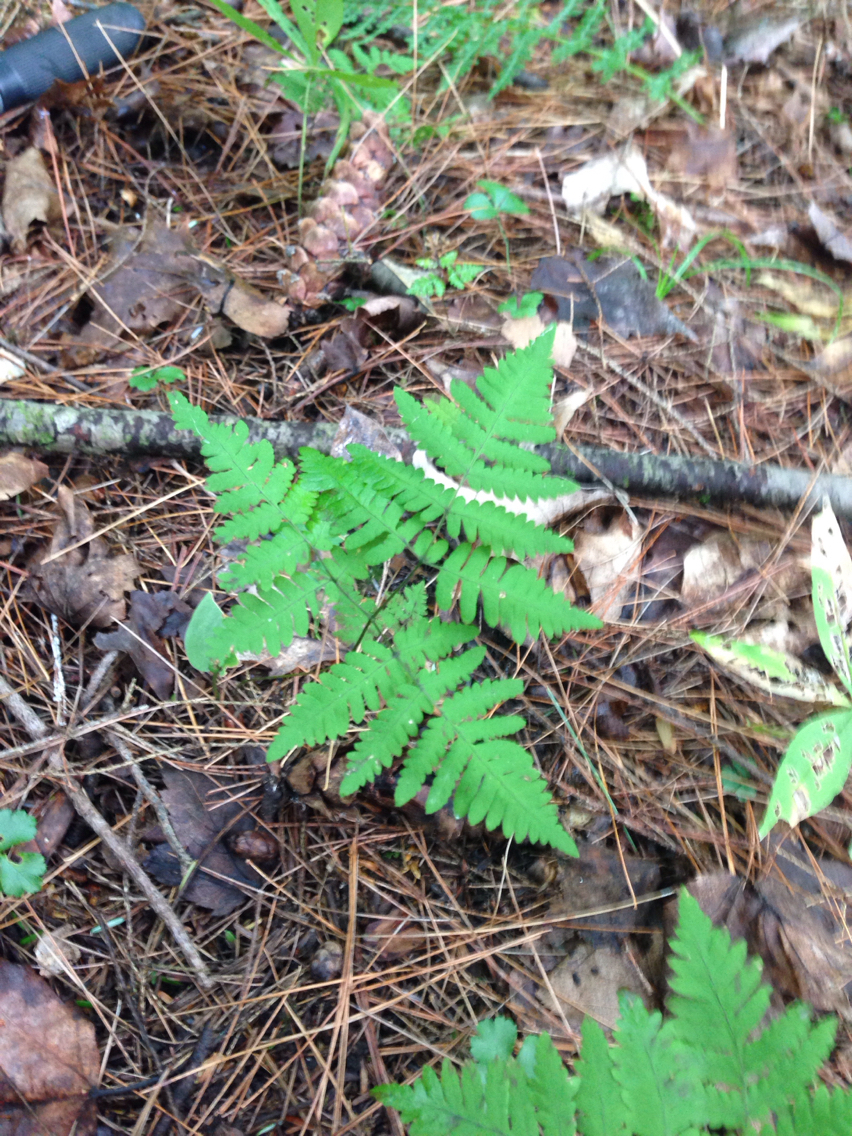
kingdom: Plantae
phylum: Tracheophyta
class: Polypodiopsida
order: Polypodiales
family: Cystopteridaceae
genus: Gymnocarpium
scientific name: Gymnocarpium dryopteris
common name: Oak fern
